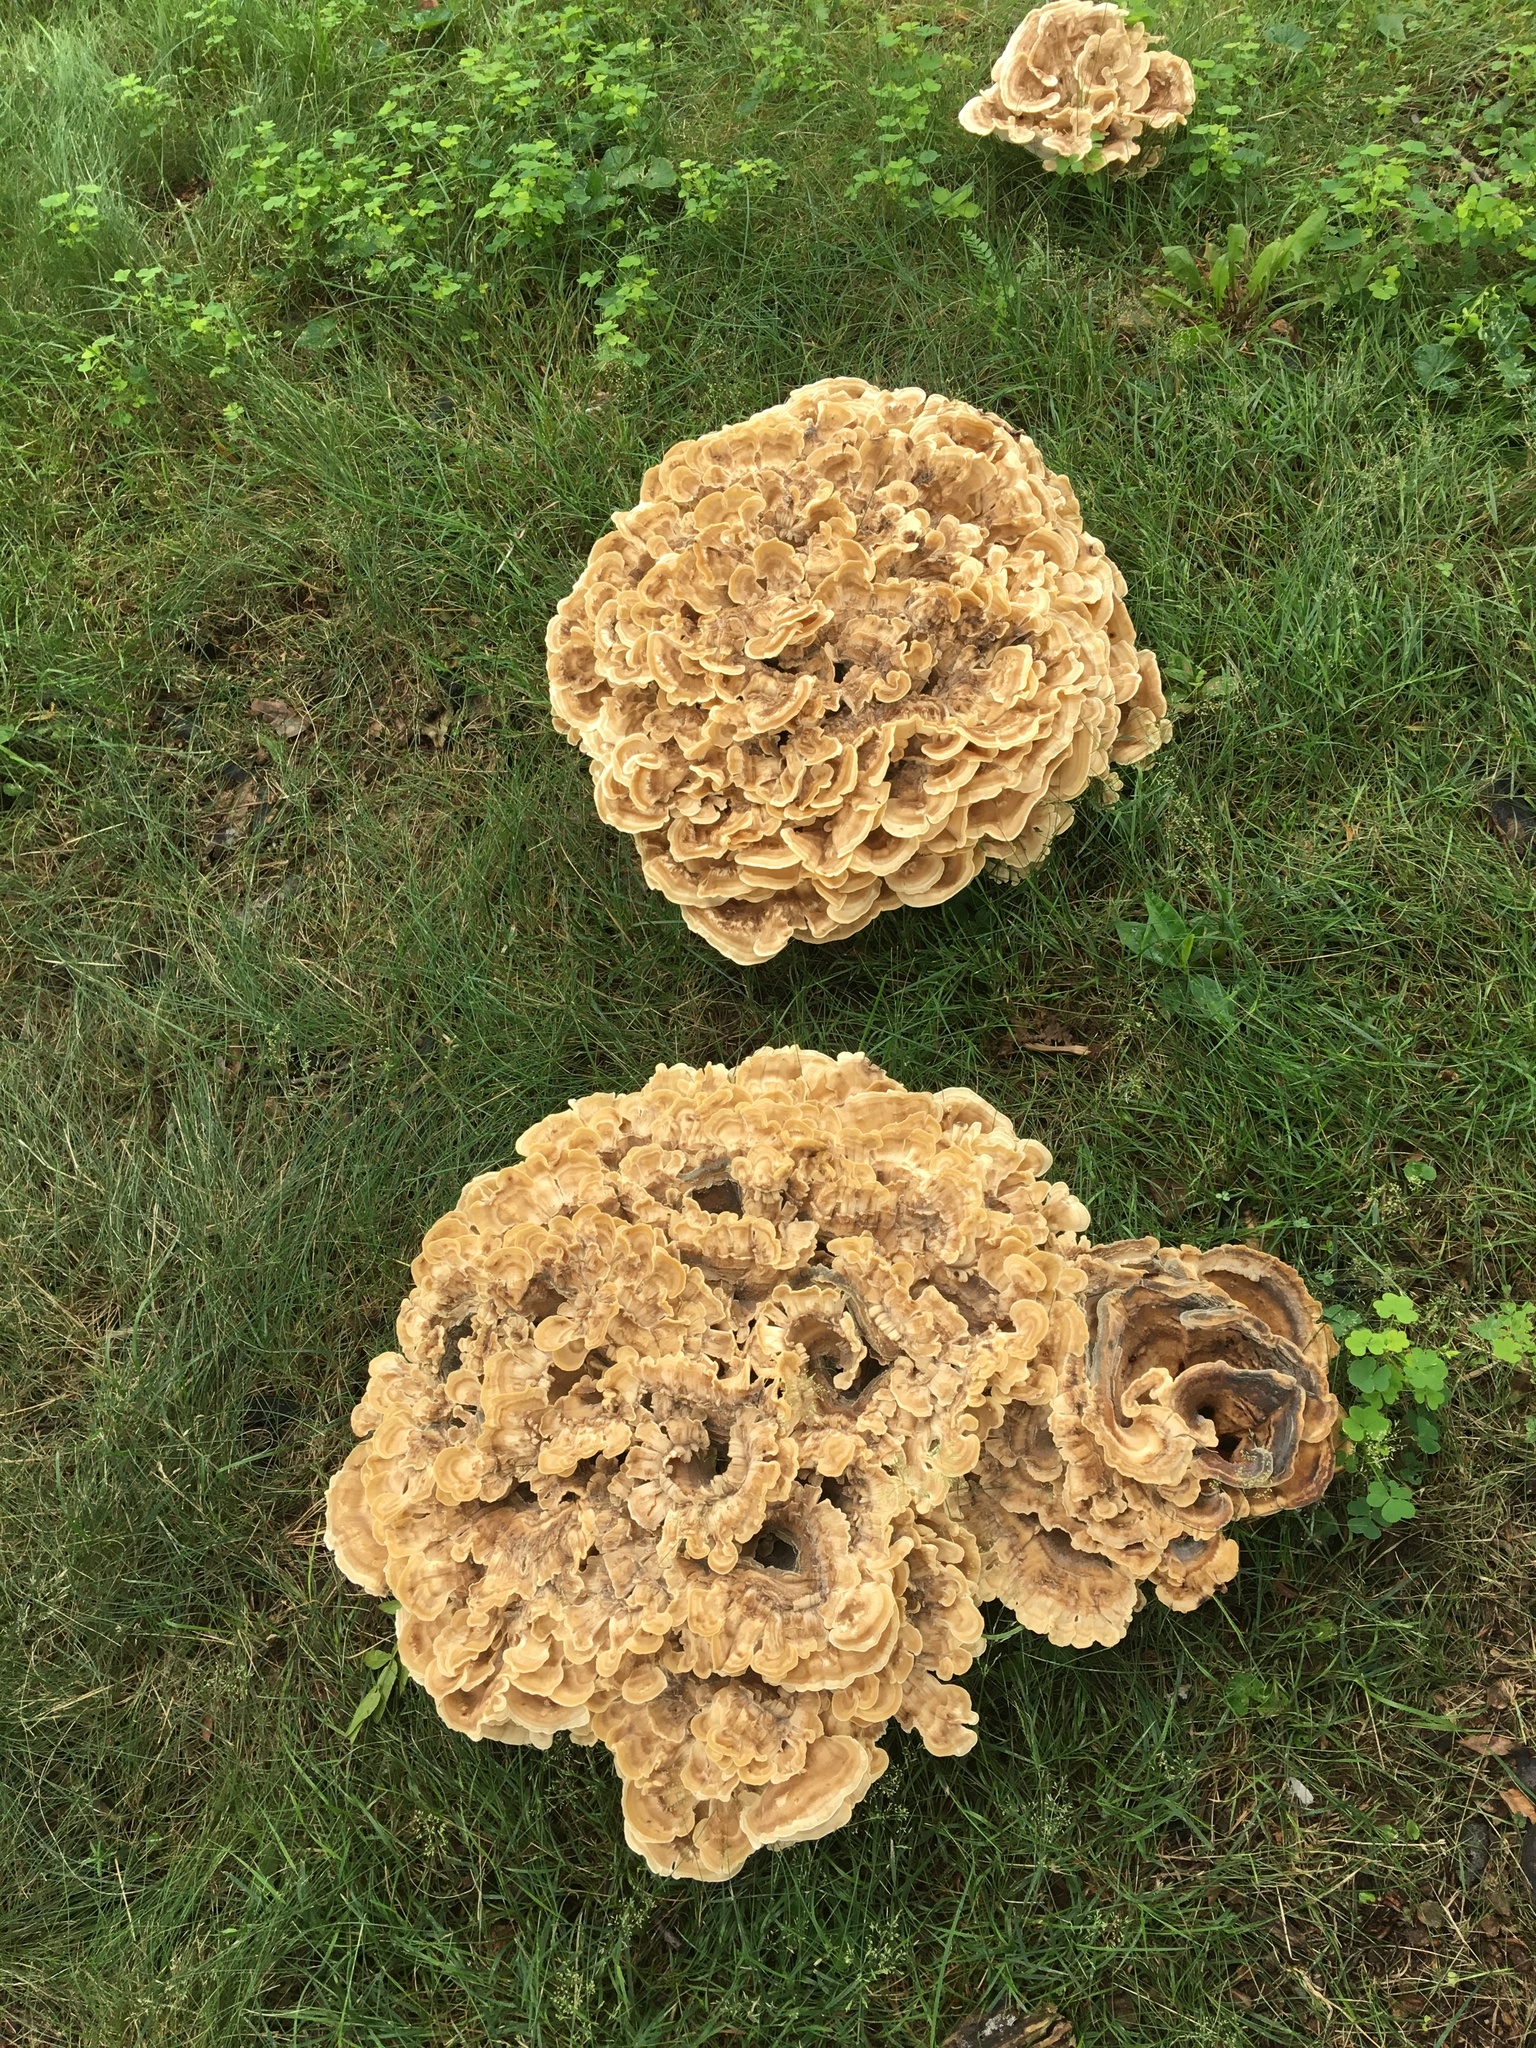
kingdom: Fungi
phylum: Basidiomycota
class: Agaricomycetes
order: Polyporales
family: Meripilaceae
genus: Meripilus
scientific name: Meripilus sumstinei
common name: Black-staining polypore
